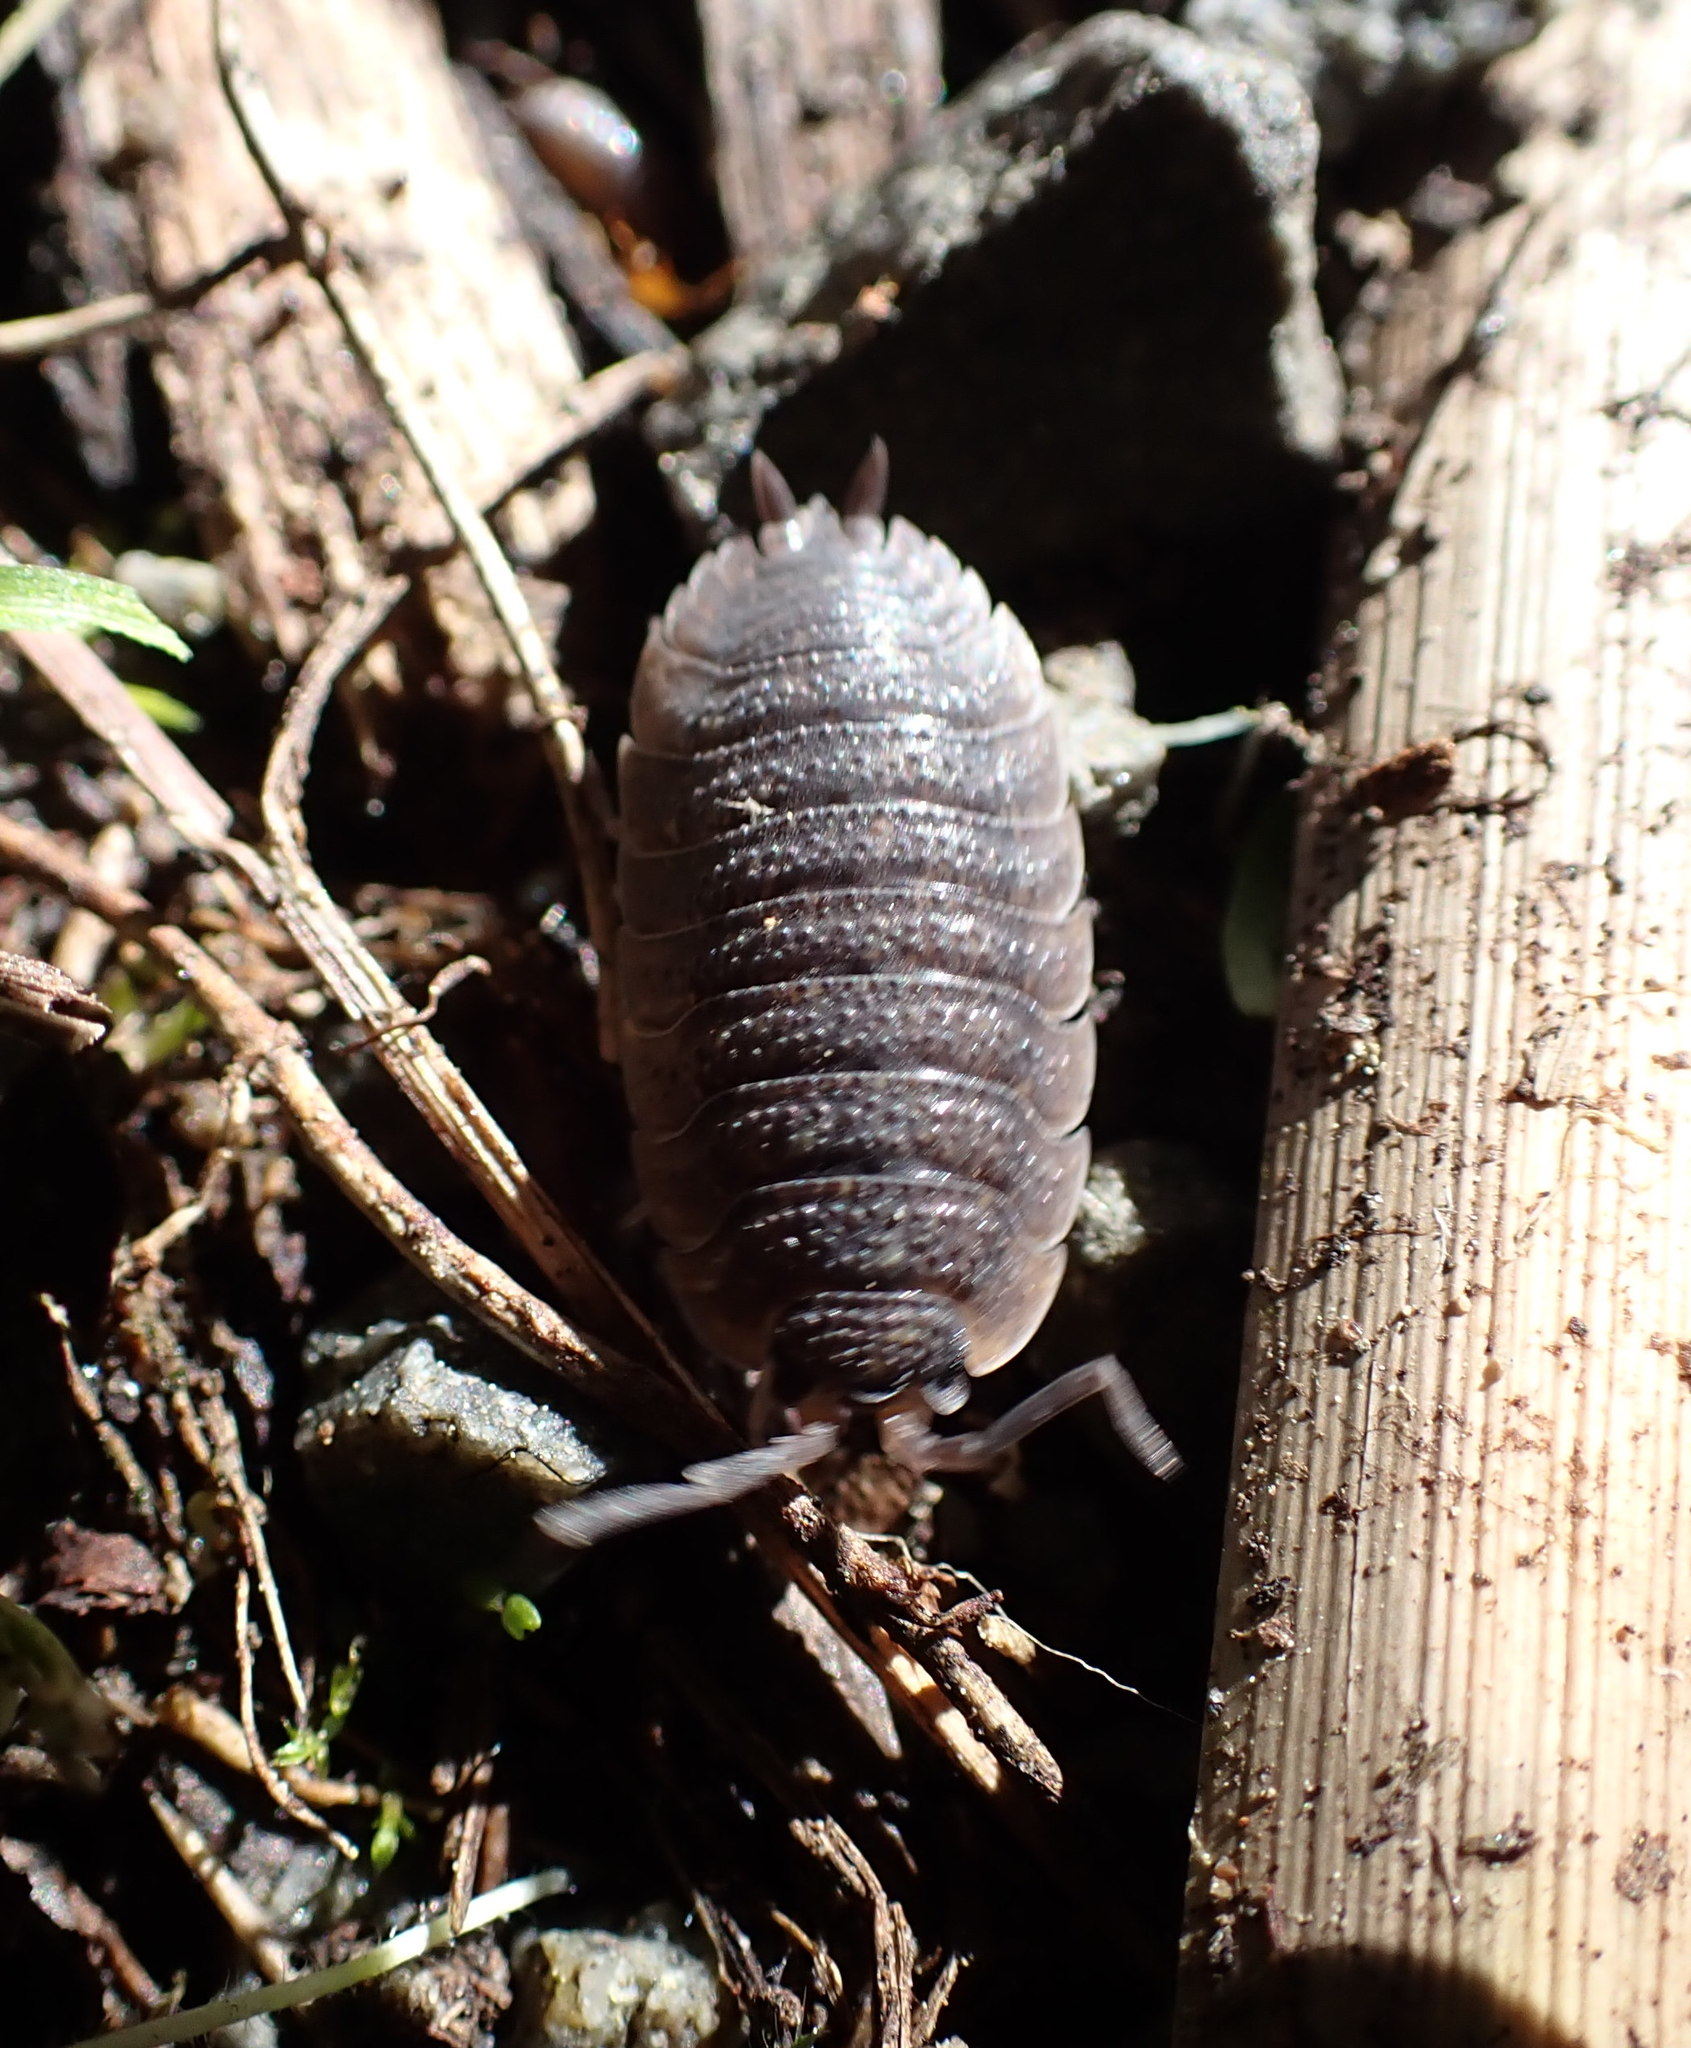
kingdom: Animalia
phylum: Arthropoda
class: Malacostraca
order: Isopoda
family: Porcellionidae
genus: Porcellio
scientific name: Porcellio scaber
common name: Common rough woodlouse
